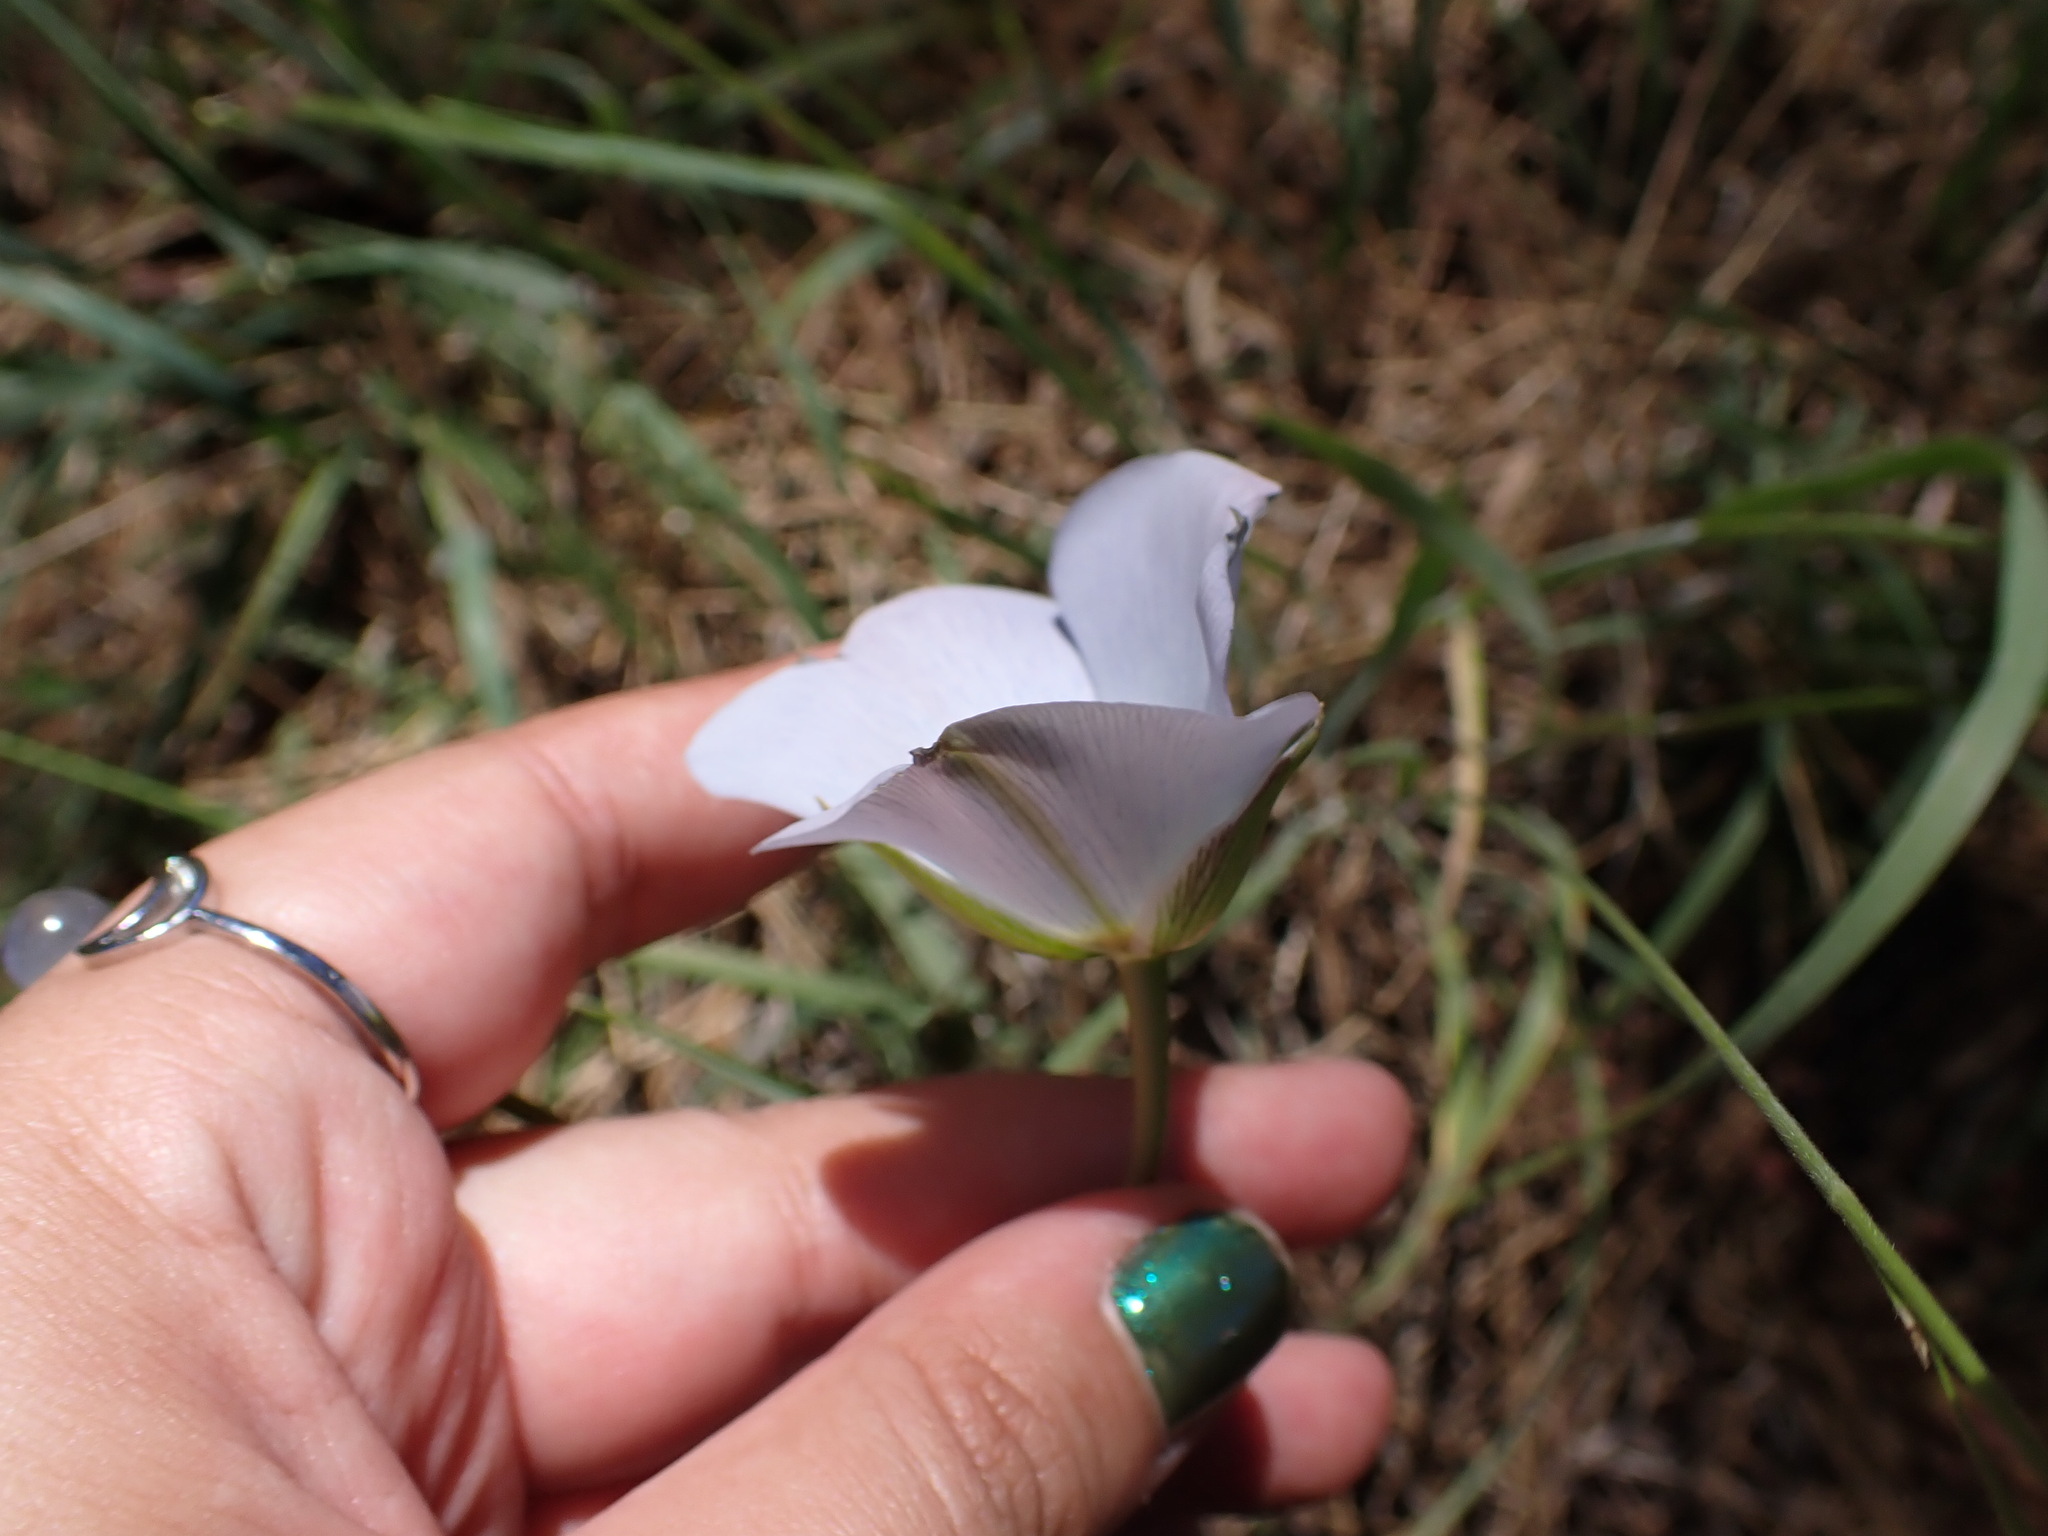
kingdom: Plantae
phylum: Tracheophyta
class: Liliopsida
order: Liliales
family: Liliaceae
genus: Calochortus
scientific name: Calochortus invenustus
